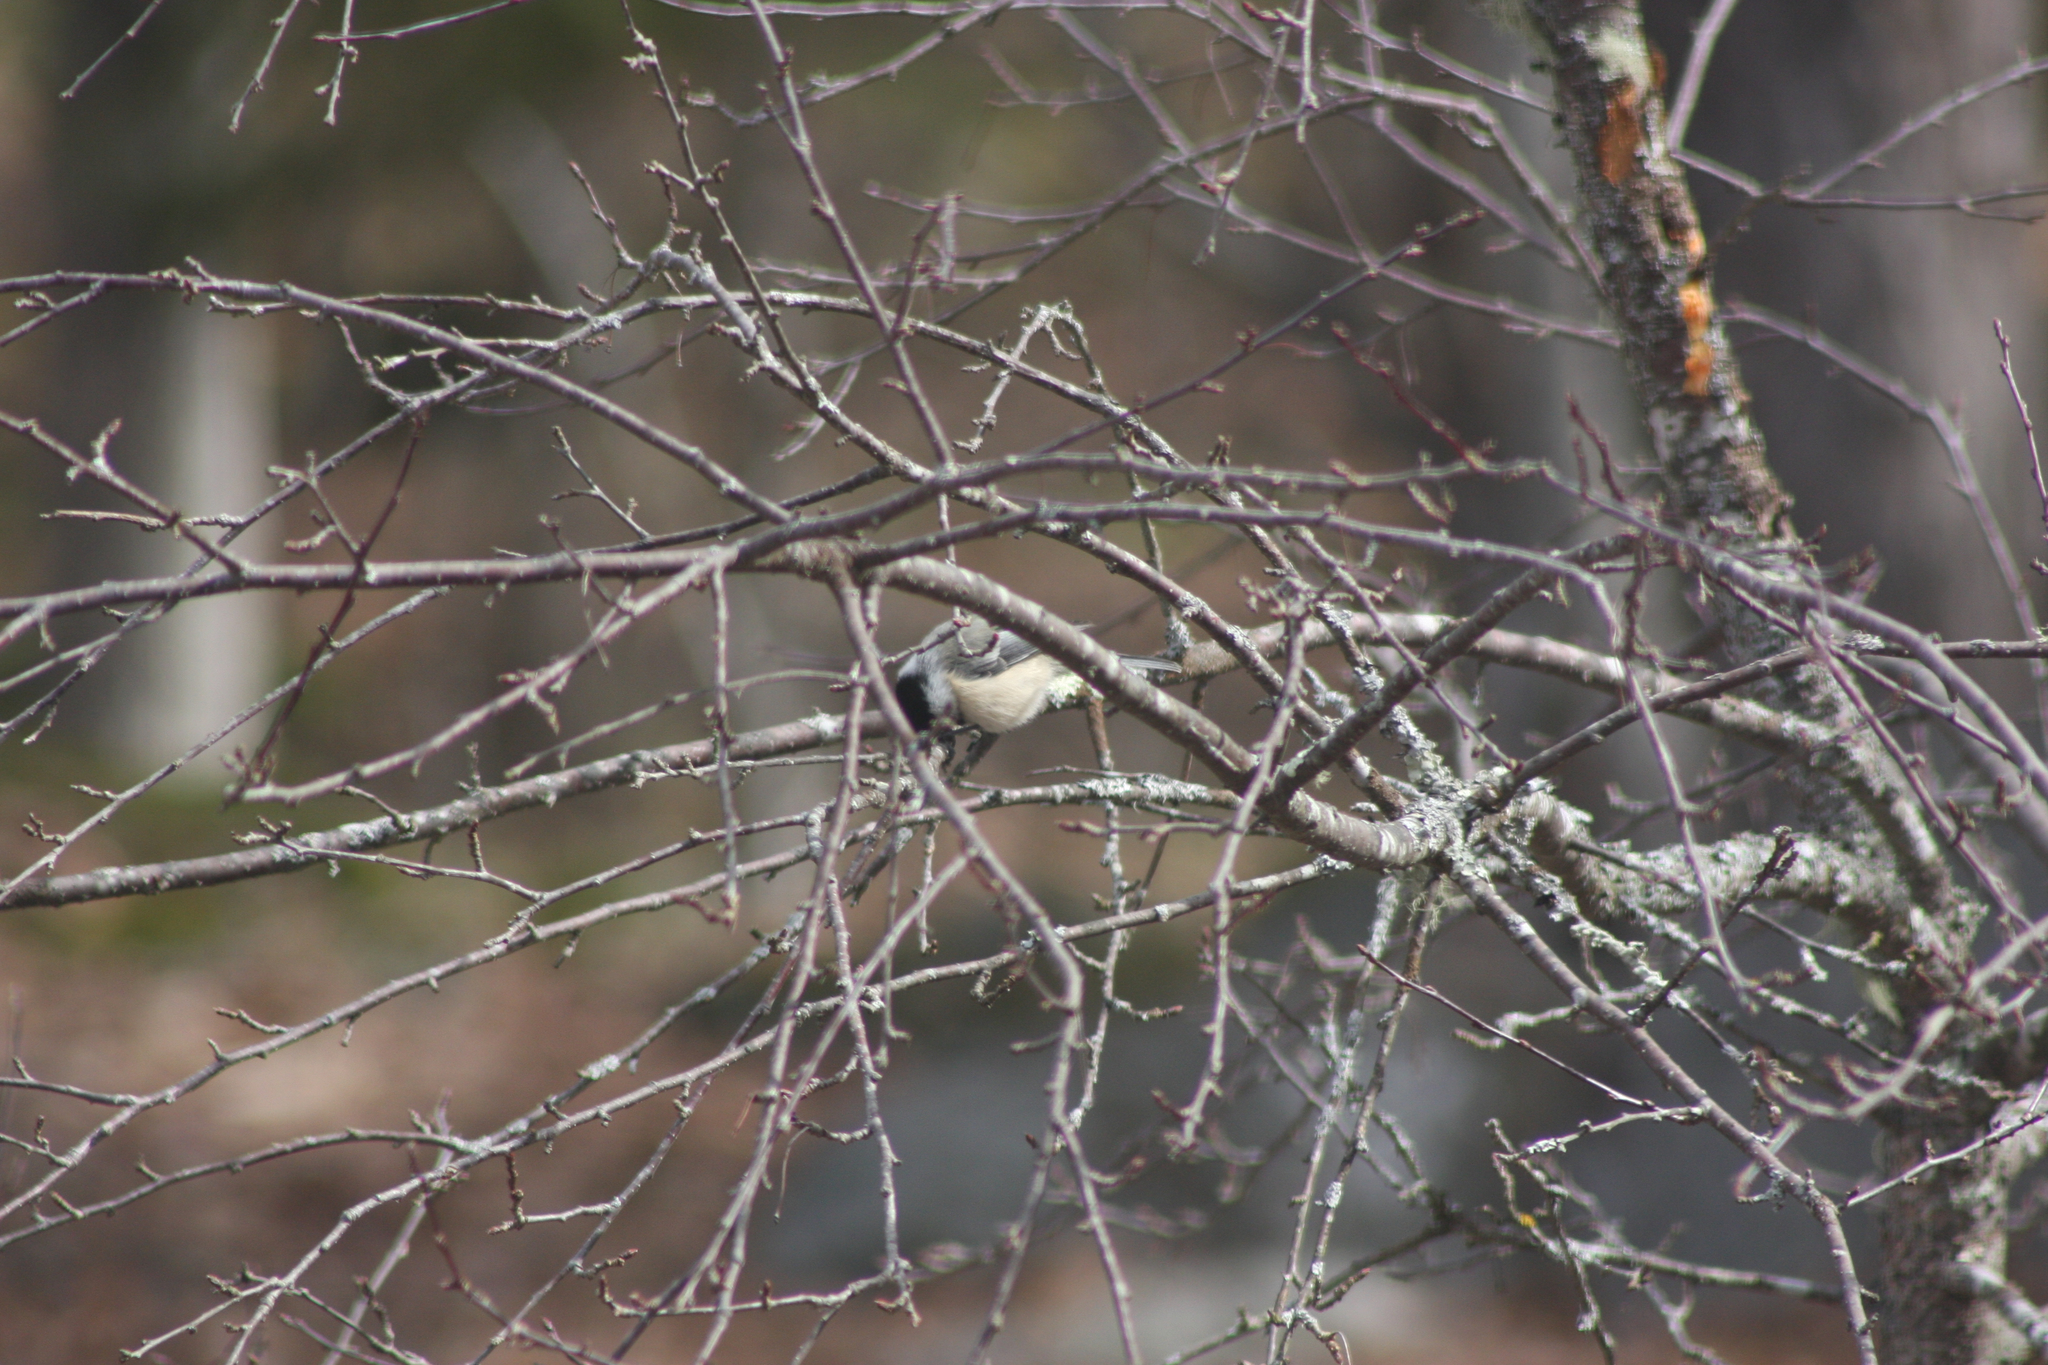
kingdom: Animalia
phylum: Chordata
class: Aves
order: Passeriformes
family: Paridae
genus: Poecile
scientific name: Poecile atricapillus
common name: Black-capped chickadee
